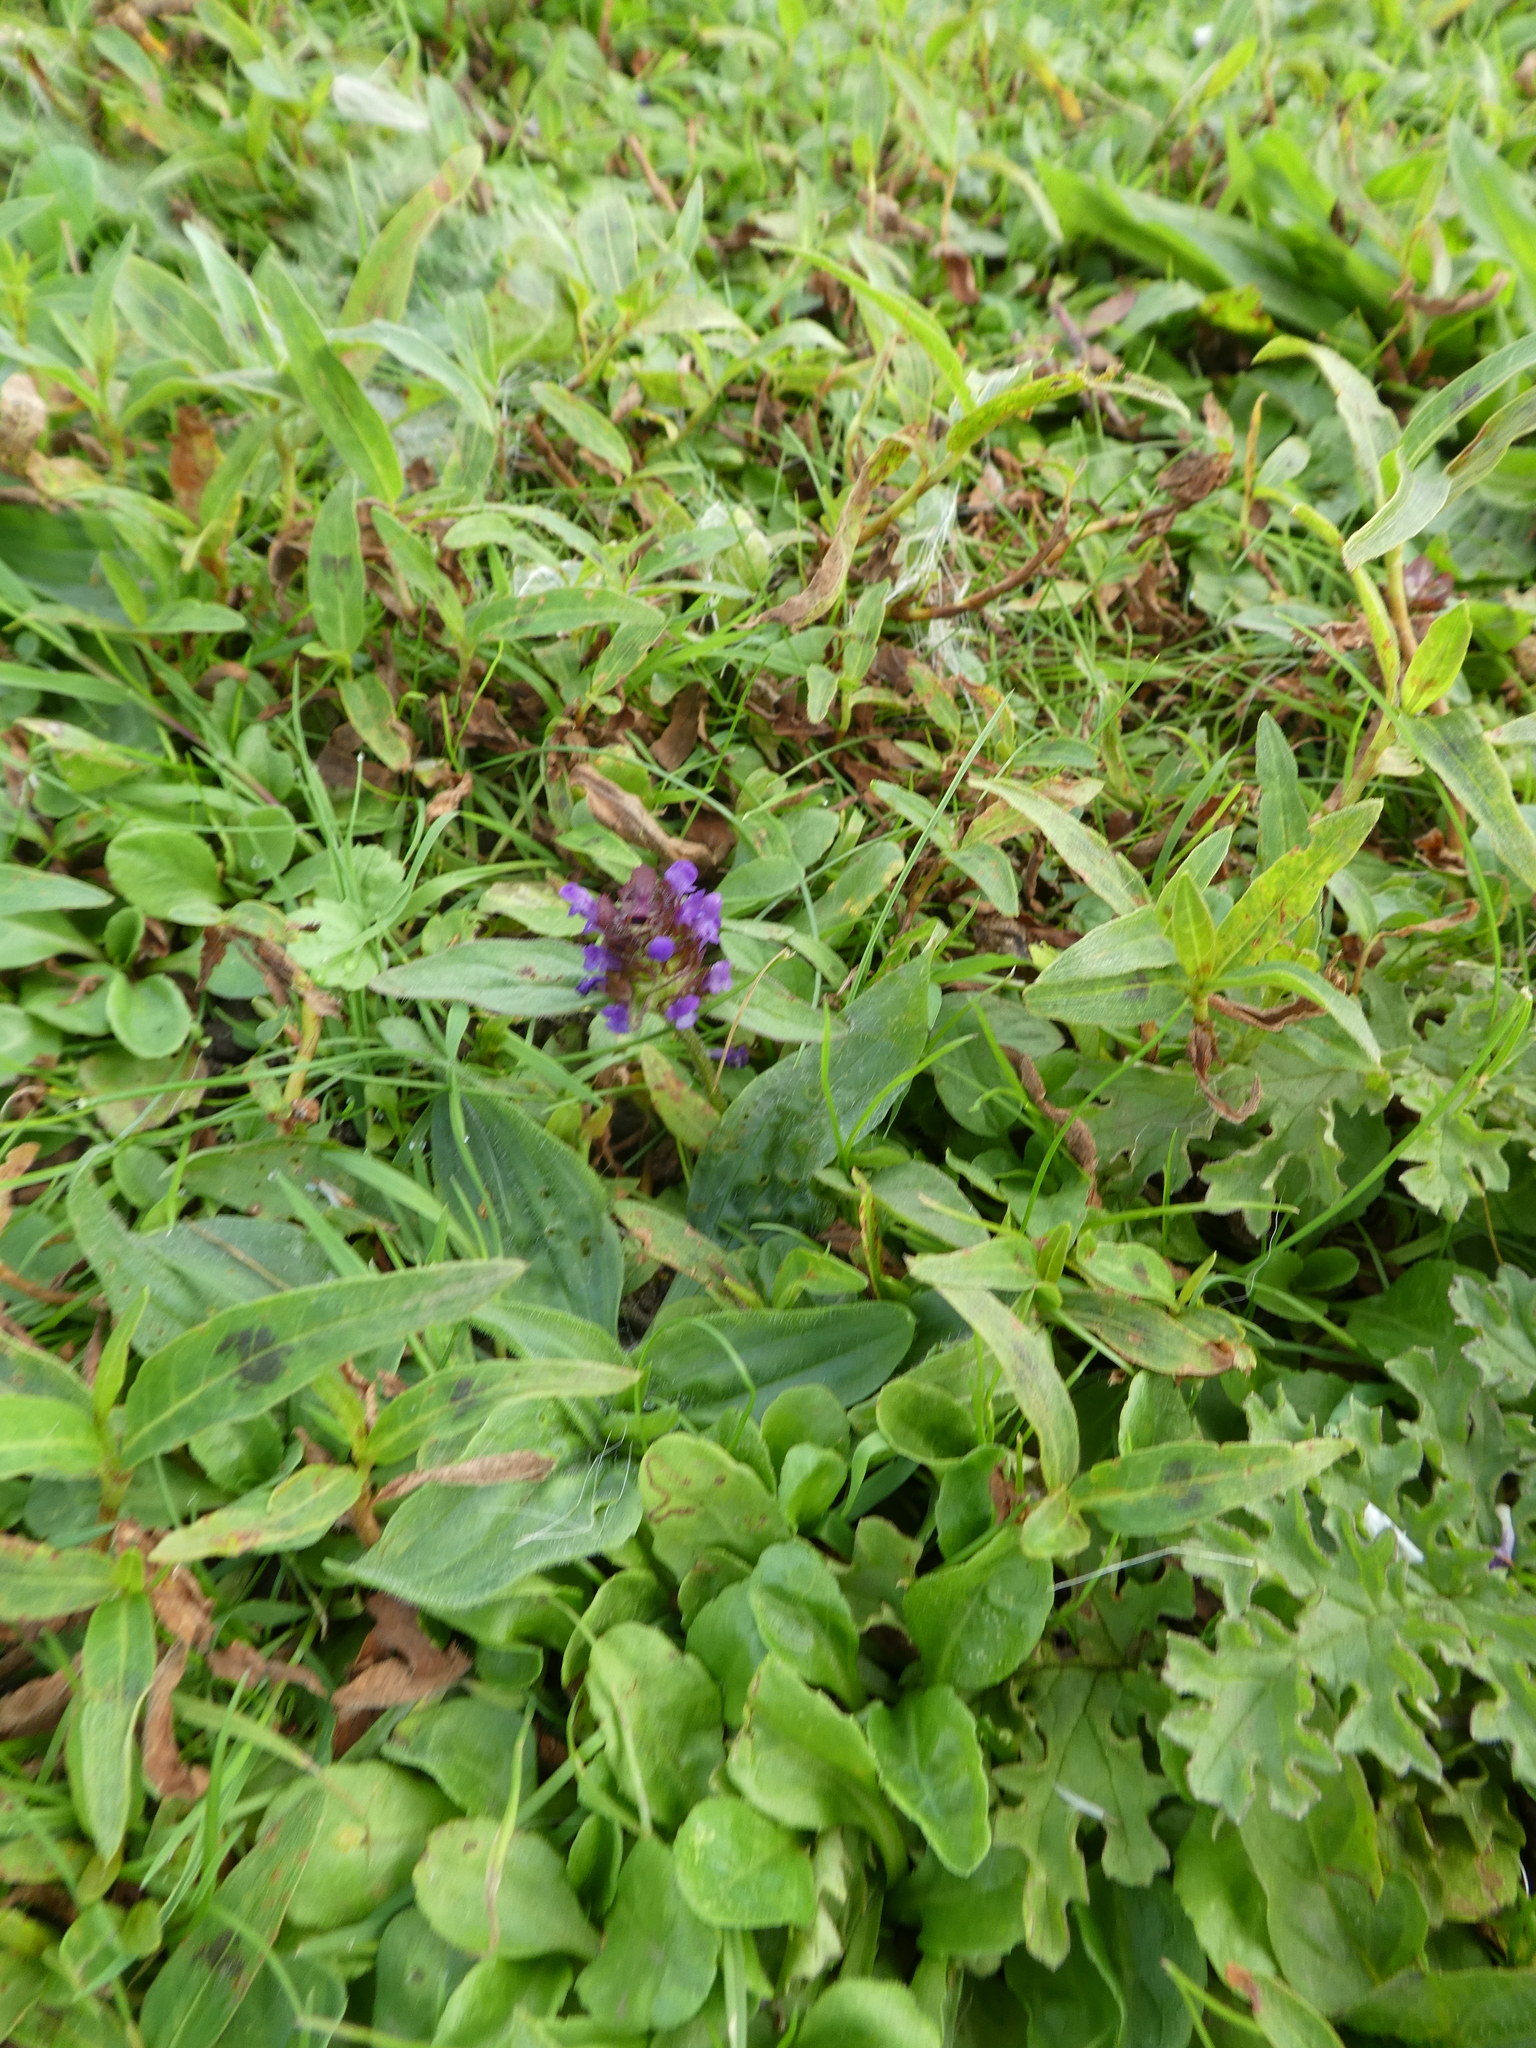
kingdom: Plantae
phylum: Tracheophyta
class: Magnoliopsida
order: Lamiales
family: Lamiaceae
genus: Prunella
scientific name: Prunella vulgaris
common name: Heal-all
